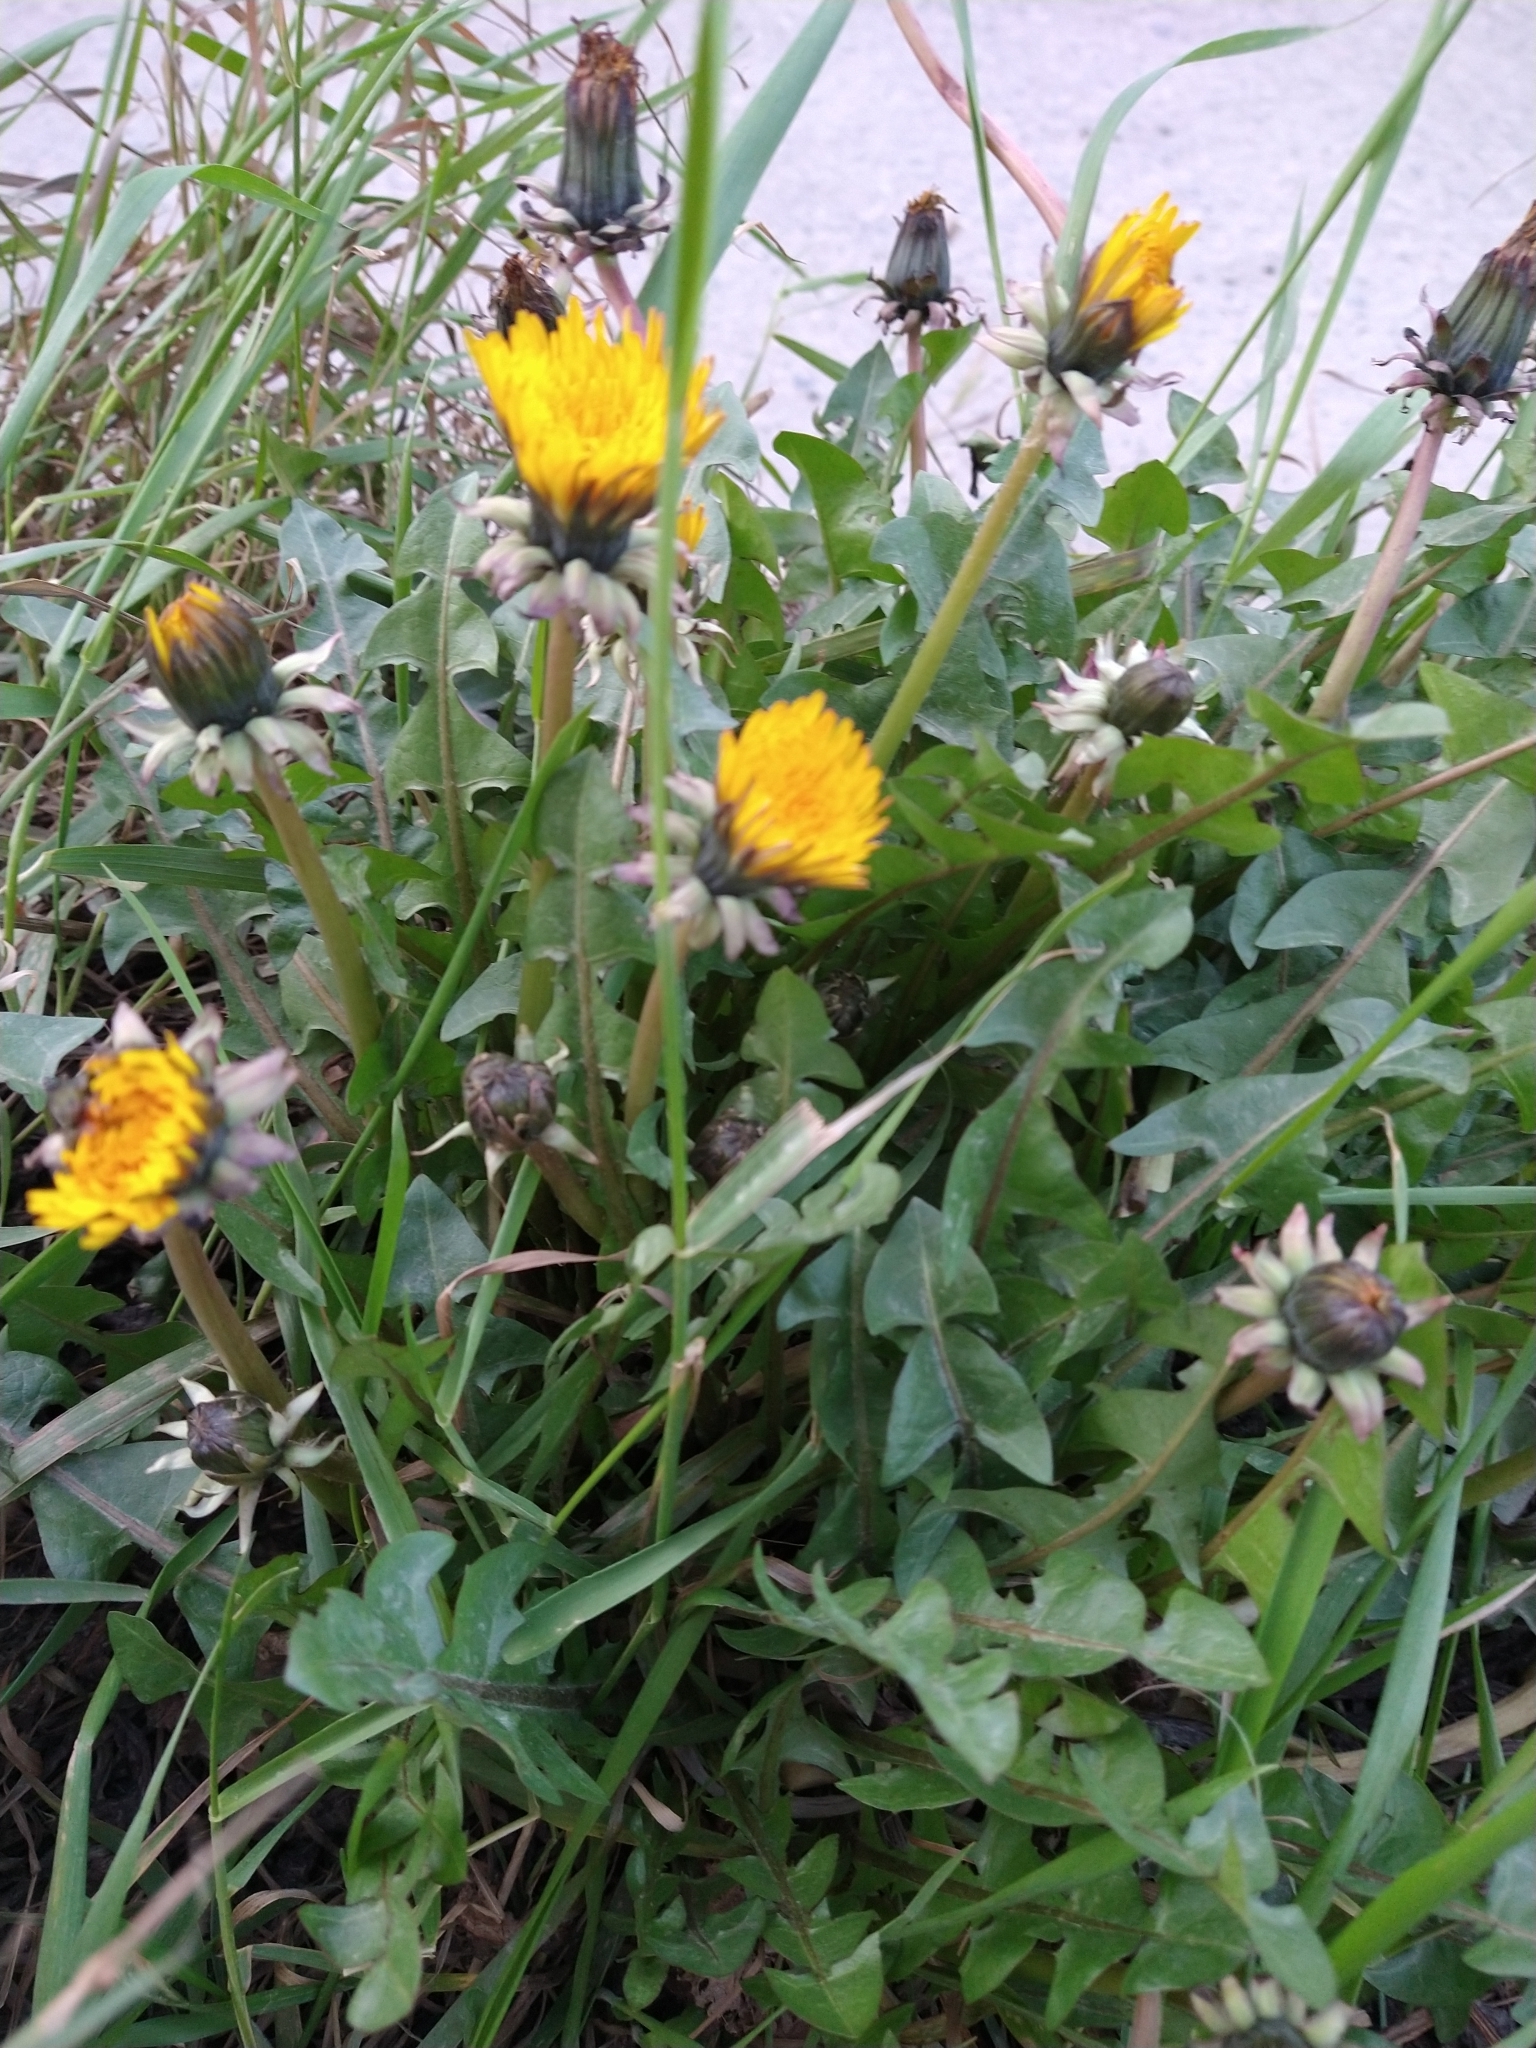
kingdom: Plantae
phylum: Tracheophyta
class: Magnoliopsida
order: Asterales
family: Asteraceae
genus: Taraxacum
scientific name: Taraxacum officinale
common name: Common dandelion
